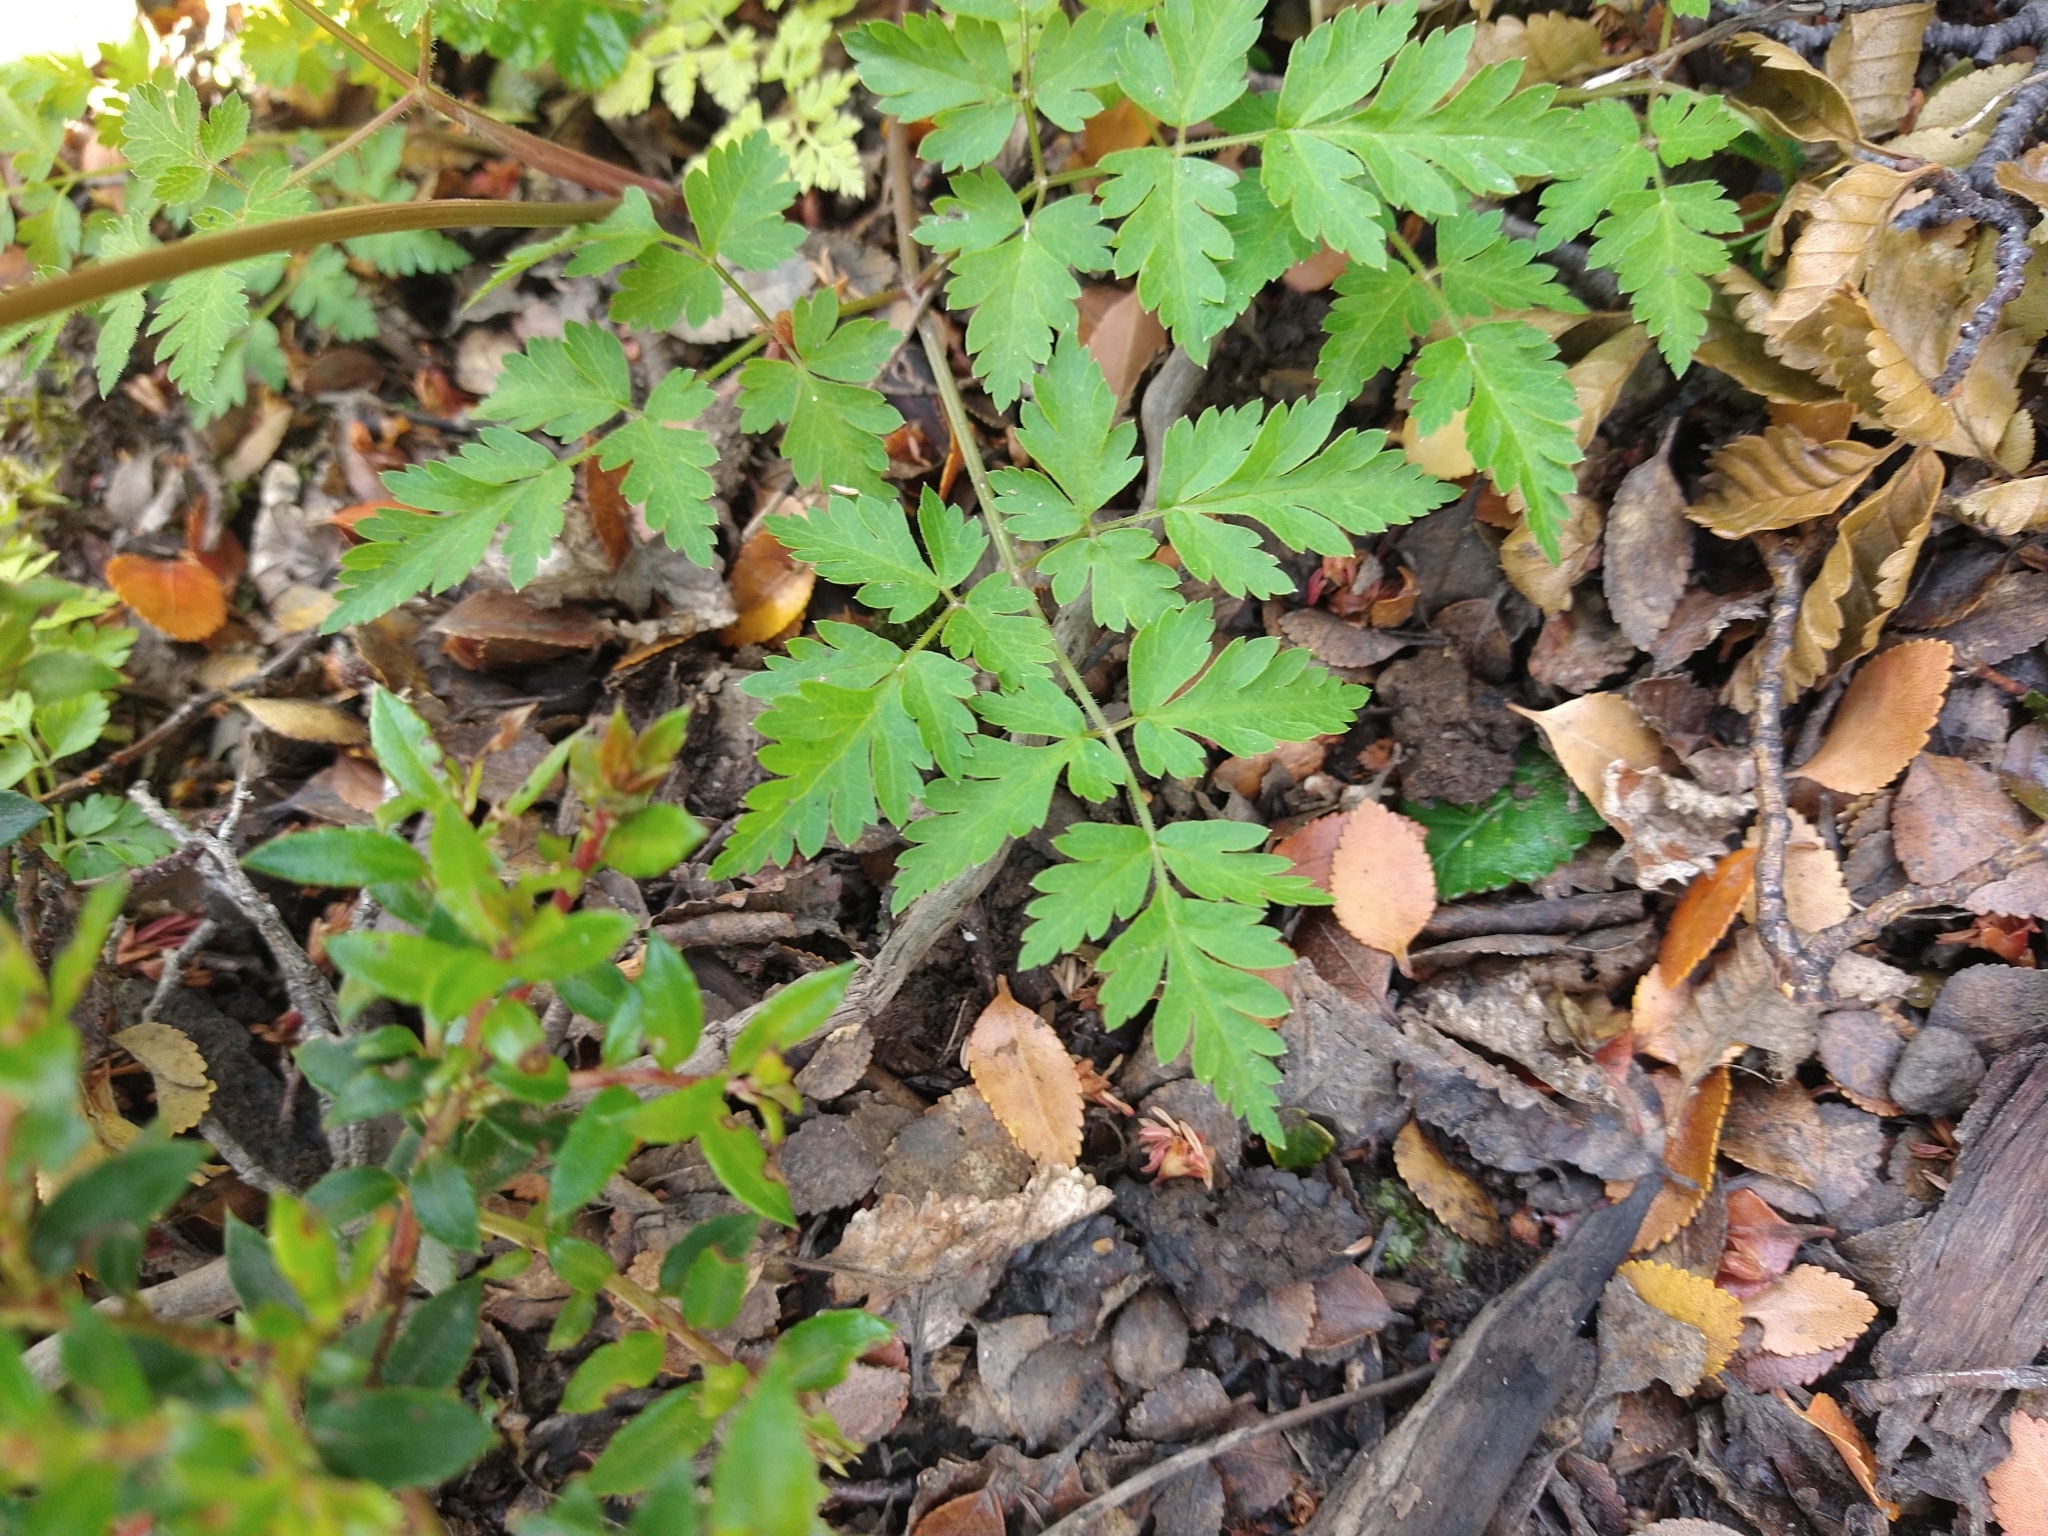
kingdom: Plantae
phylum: Tracheophyta
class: Magnoliopsida
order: Apiales
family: Apiaceae
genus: Osmorhiza
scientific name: Osmorhiza berteroi
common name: Mountain sweet cicely
